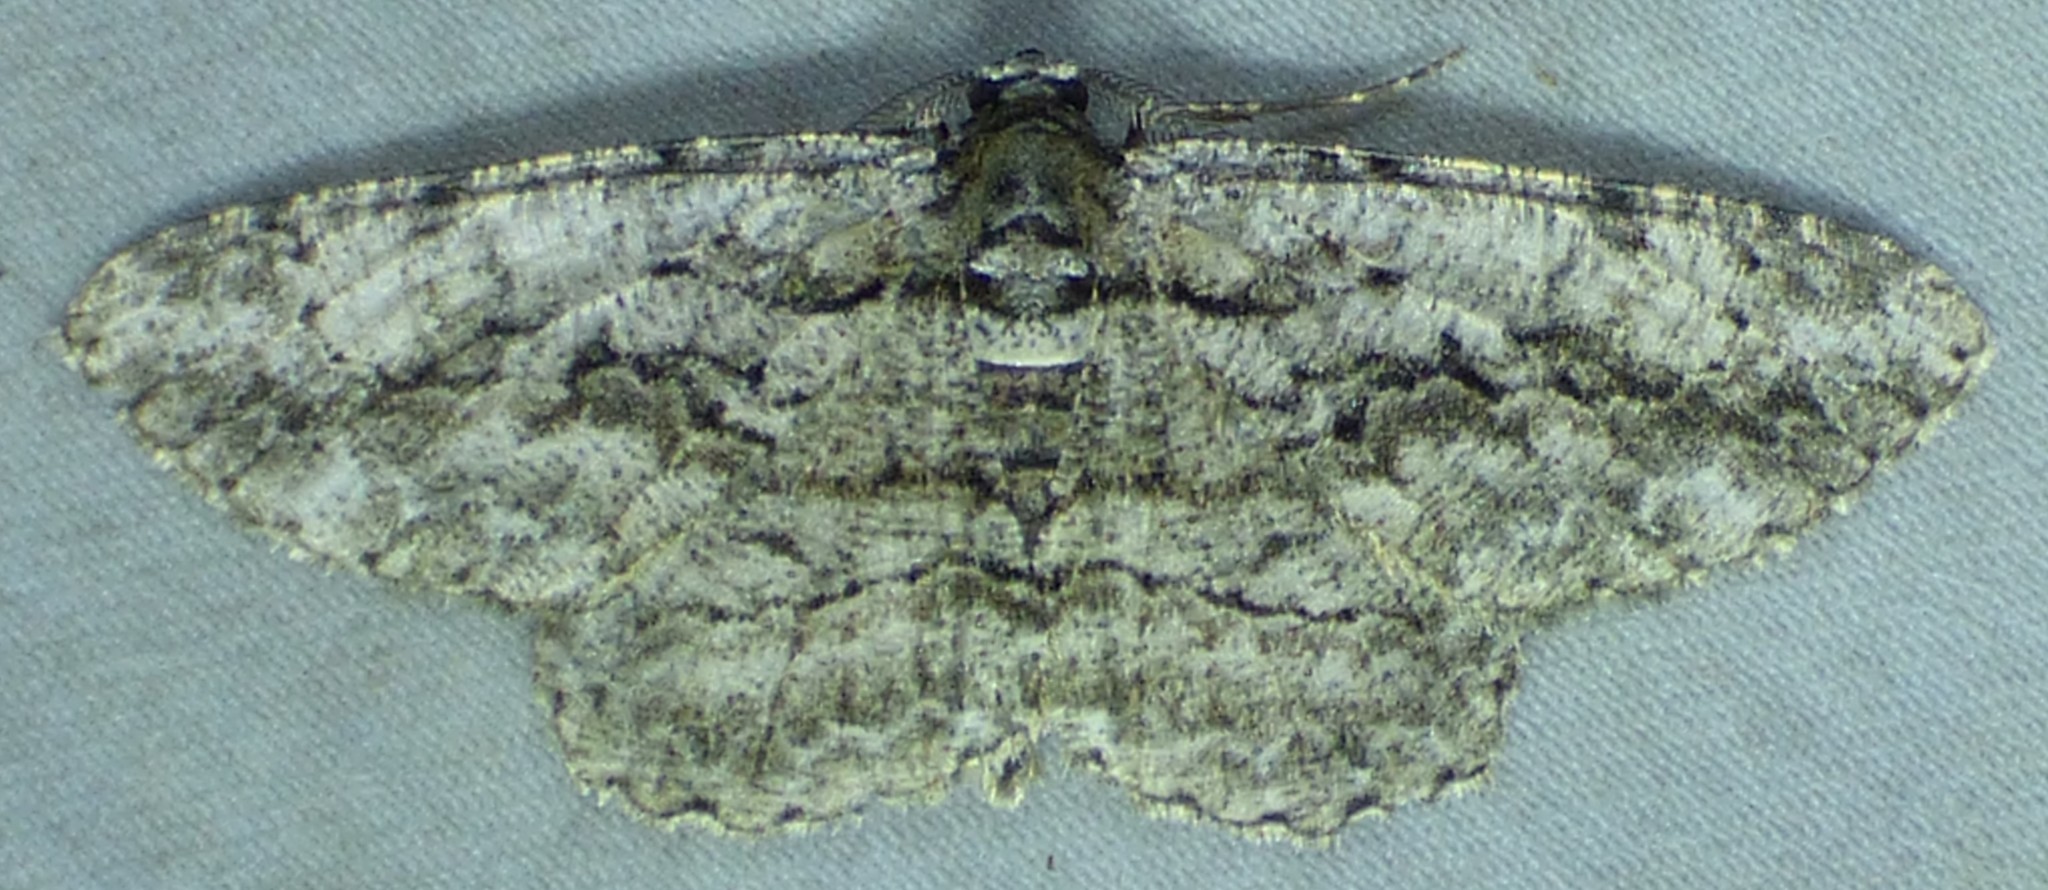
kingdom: Animalia
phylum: Arthropoda
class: Insecta
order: Lepidoptera
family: Geometridae
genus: Anavitrinella
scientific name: Anavitrinella pampinaria
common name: Common gray
